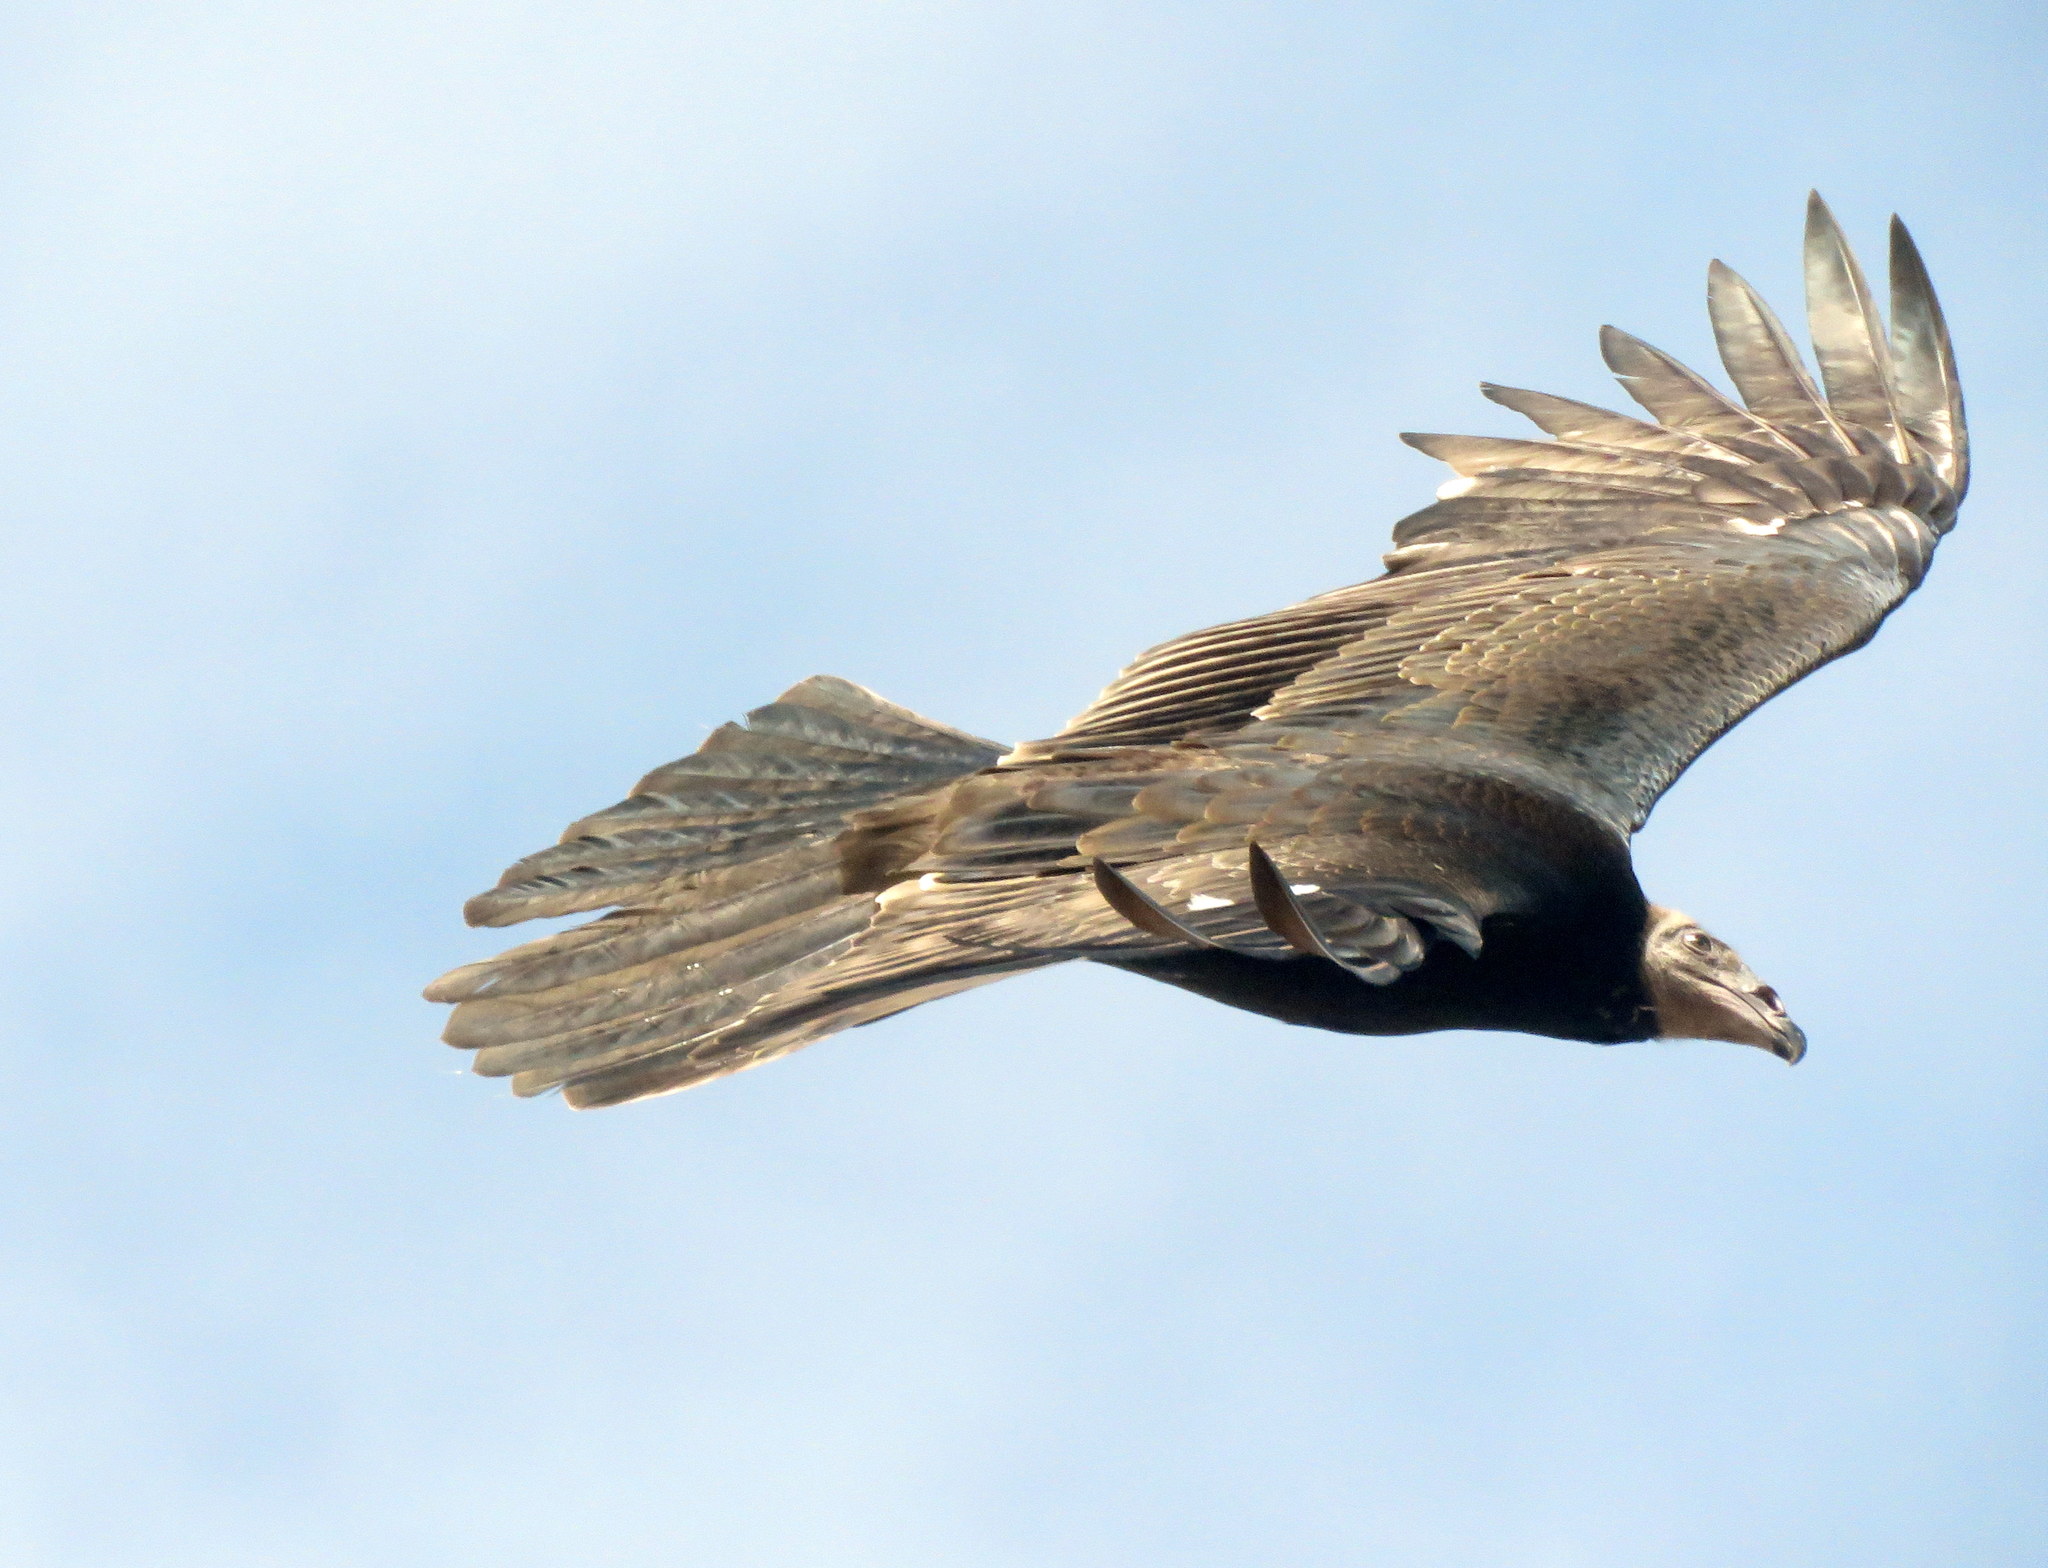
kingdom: Animalia
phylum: Chordata
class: Aves
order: Accipitriformes
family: Cathartidae
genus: Cathartes
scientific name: Cathartes aura
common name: Turkey vulture
